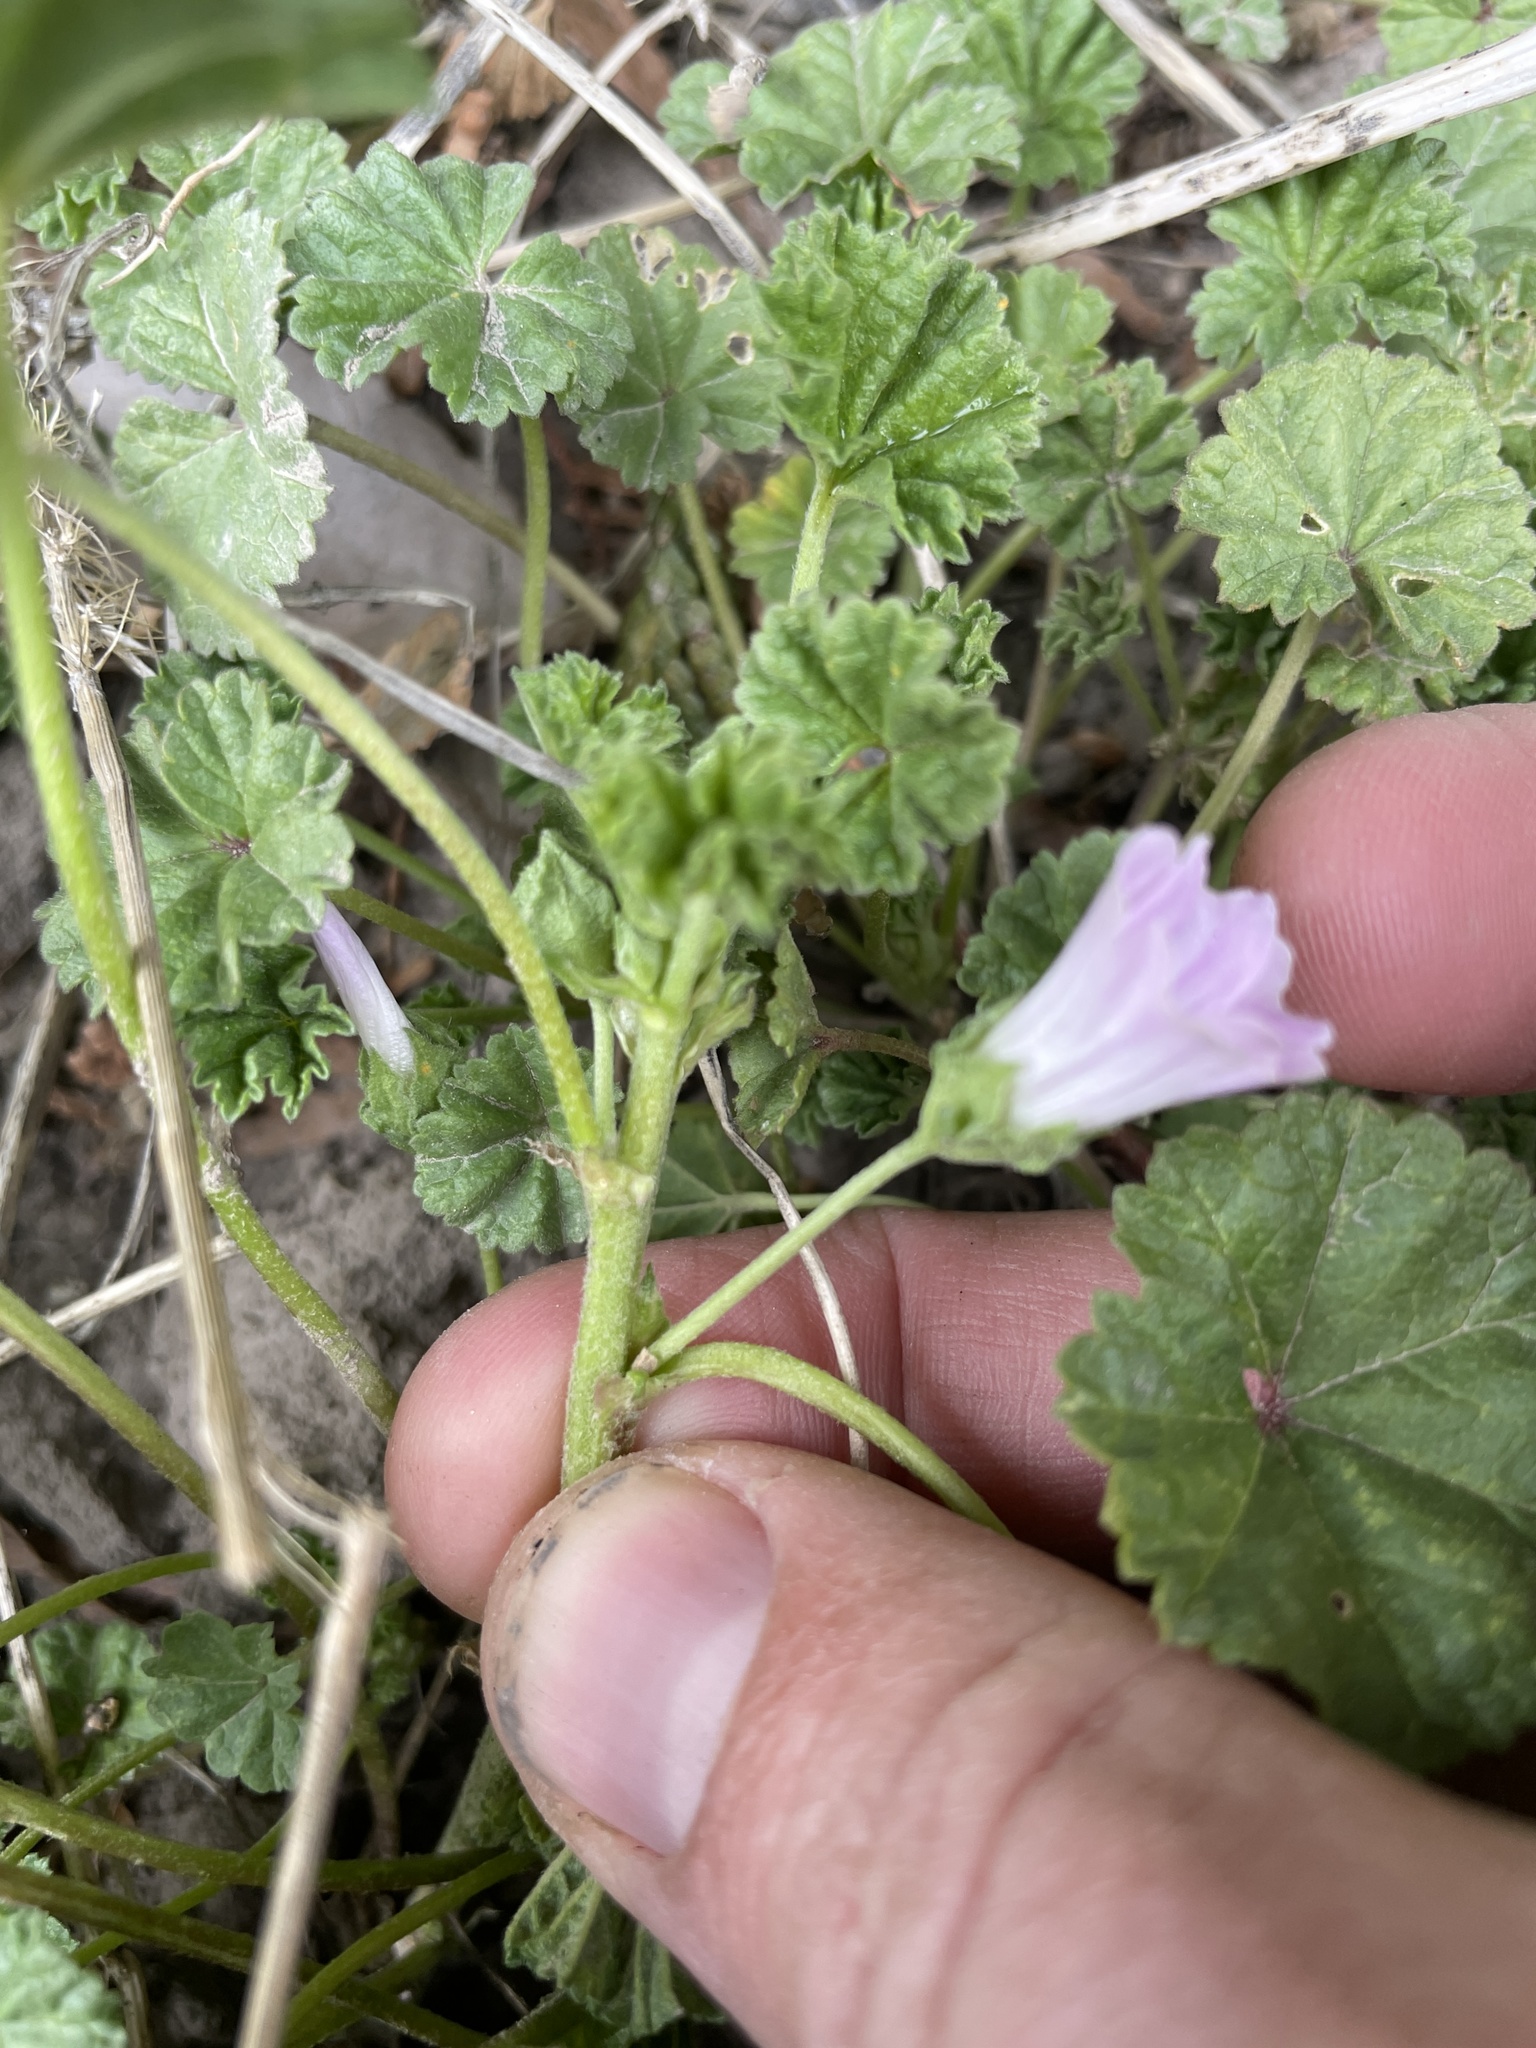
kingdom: Plantae
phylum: Tracheophyta
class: Magnoliopsida
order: Malvales
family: Malvaceae
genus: Malva
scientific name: Malva neglecta
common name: Common mallow
